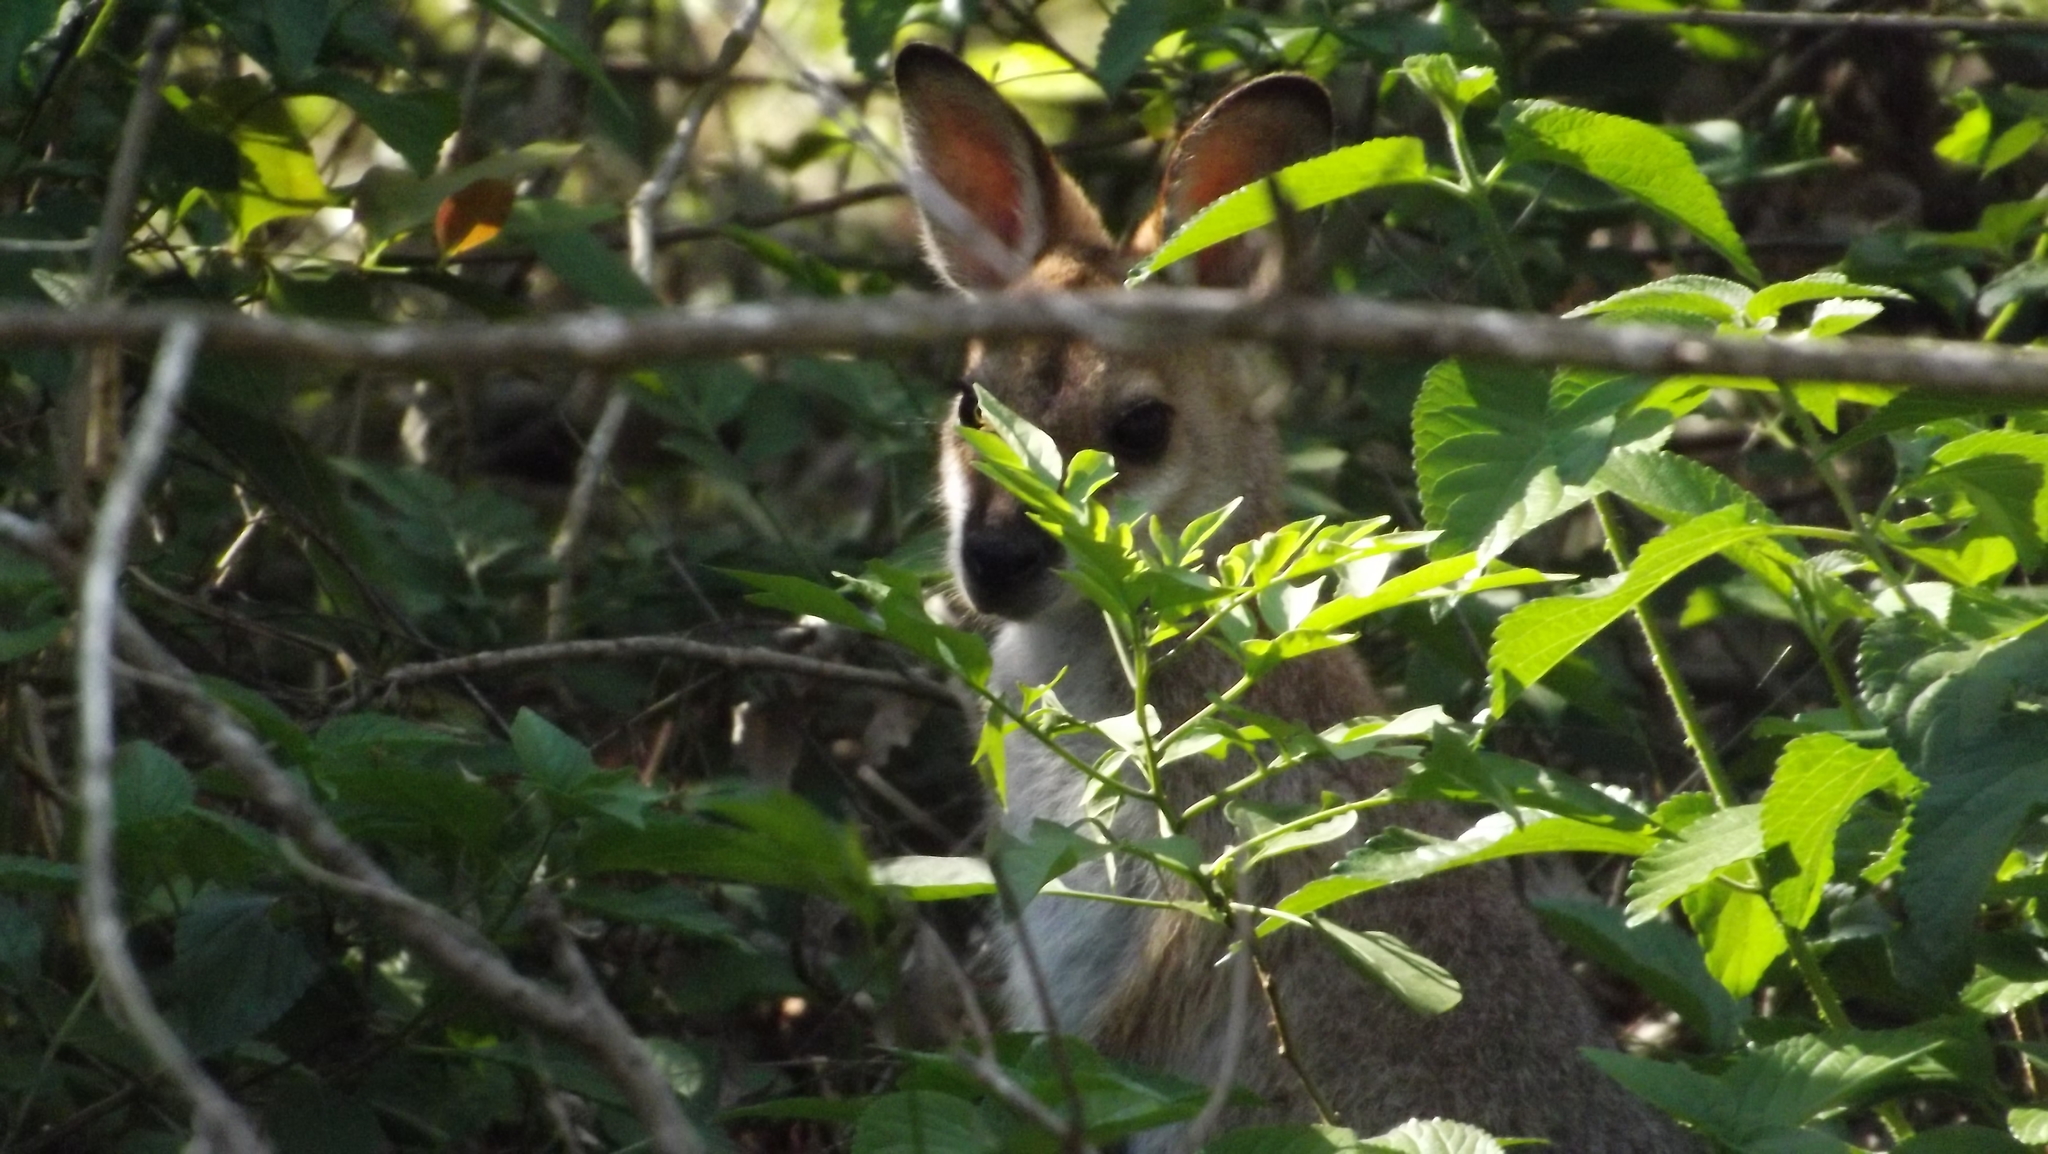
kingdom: Animalia
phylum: Chordata
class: Mammalia
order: Diprotodontia
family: Macropodidae
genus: Notamacropus
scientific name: Notamacropus rufogriseus
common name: Red-necked wallaby
